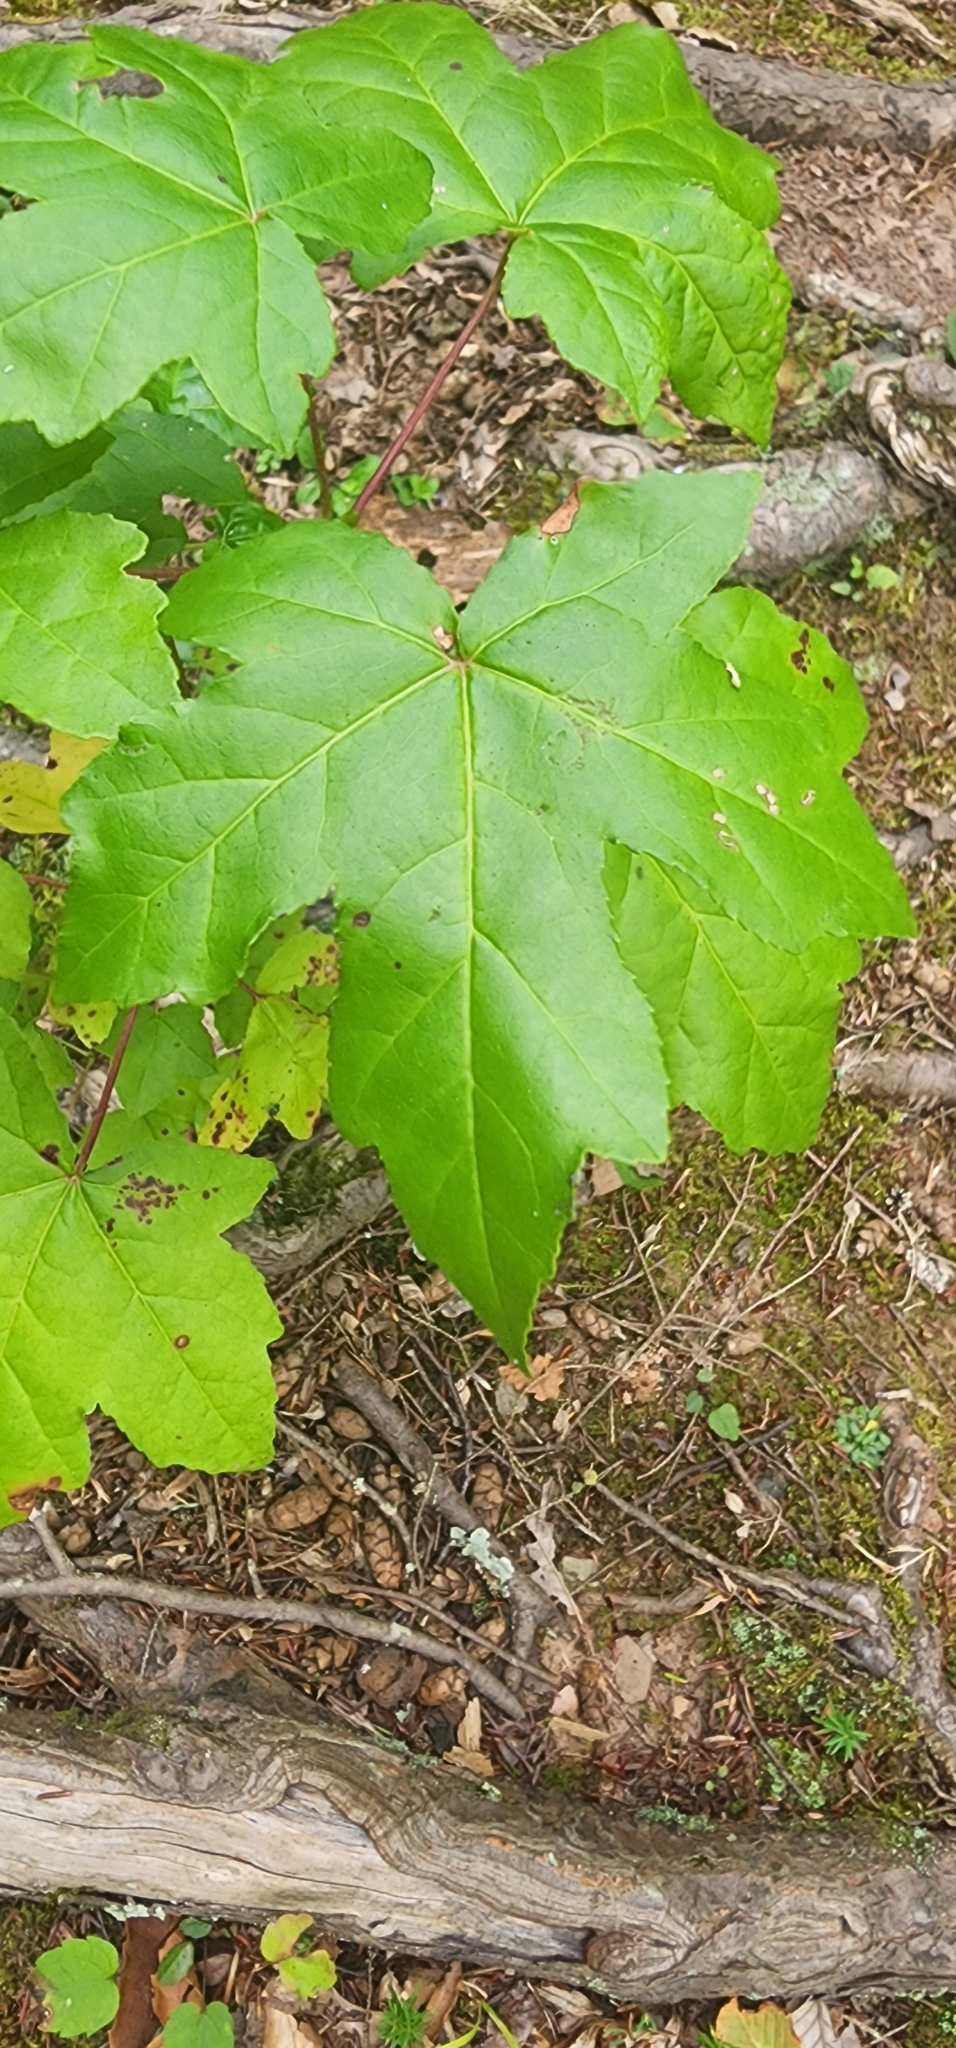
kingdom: Plantae
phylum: Tracheophyta
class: Magnoliopsida
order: Saxifragales
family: Altingiaceae
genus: Liquidambar
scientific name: Liquidambar styraciflua
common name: Sweet gum
